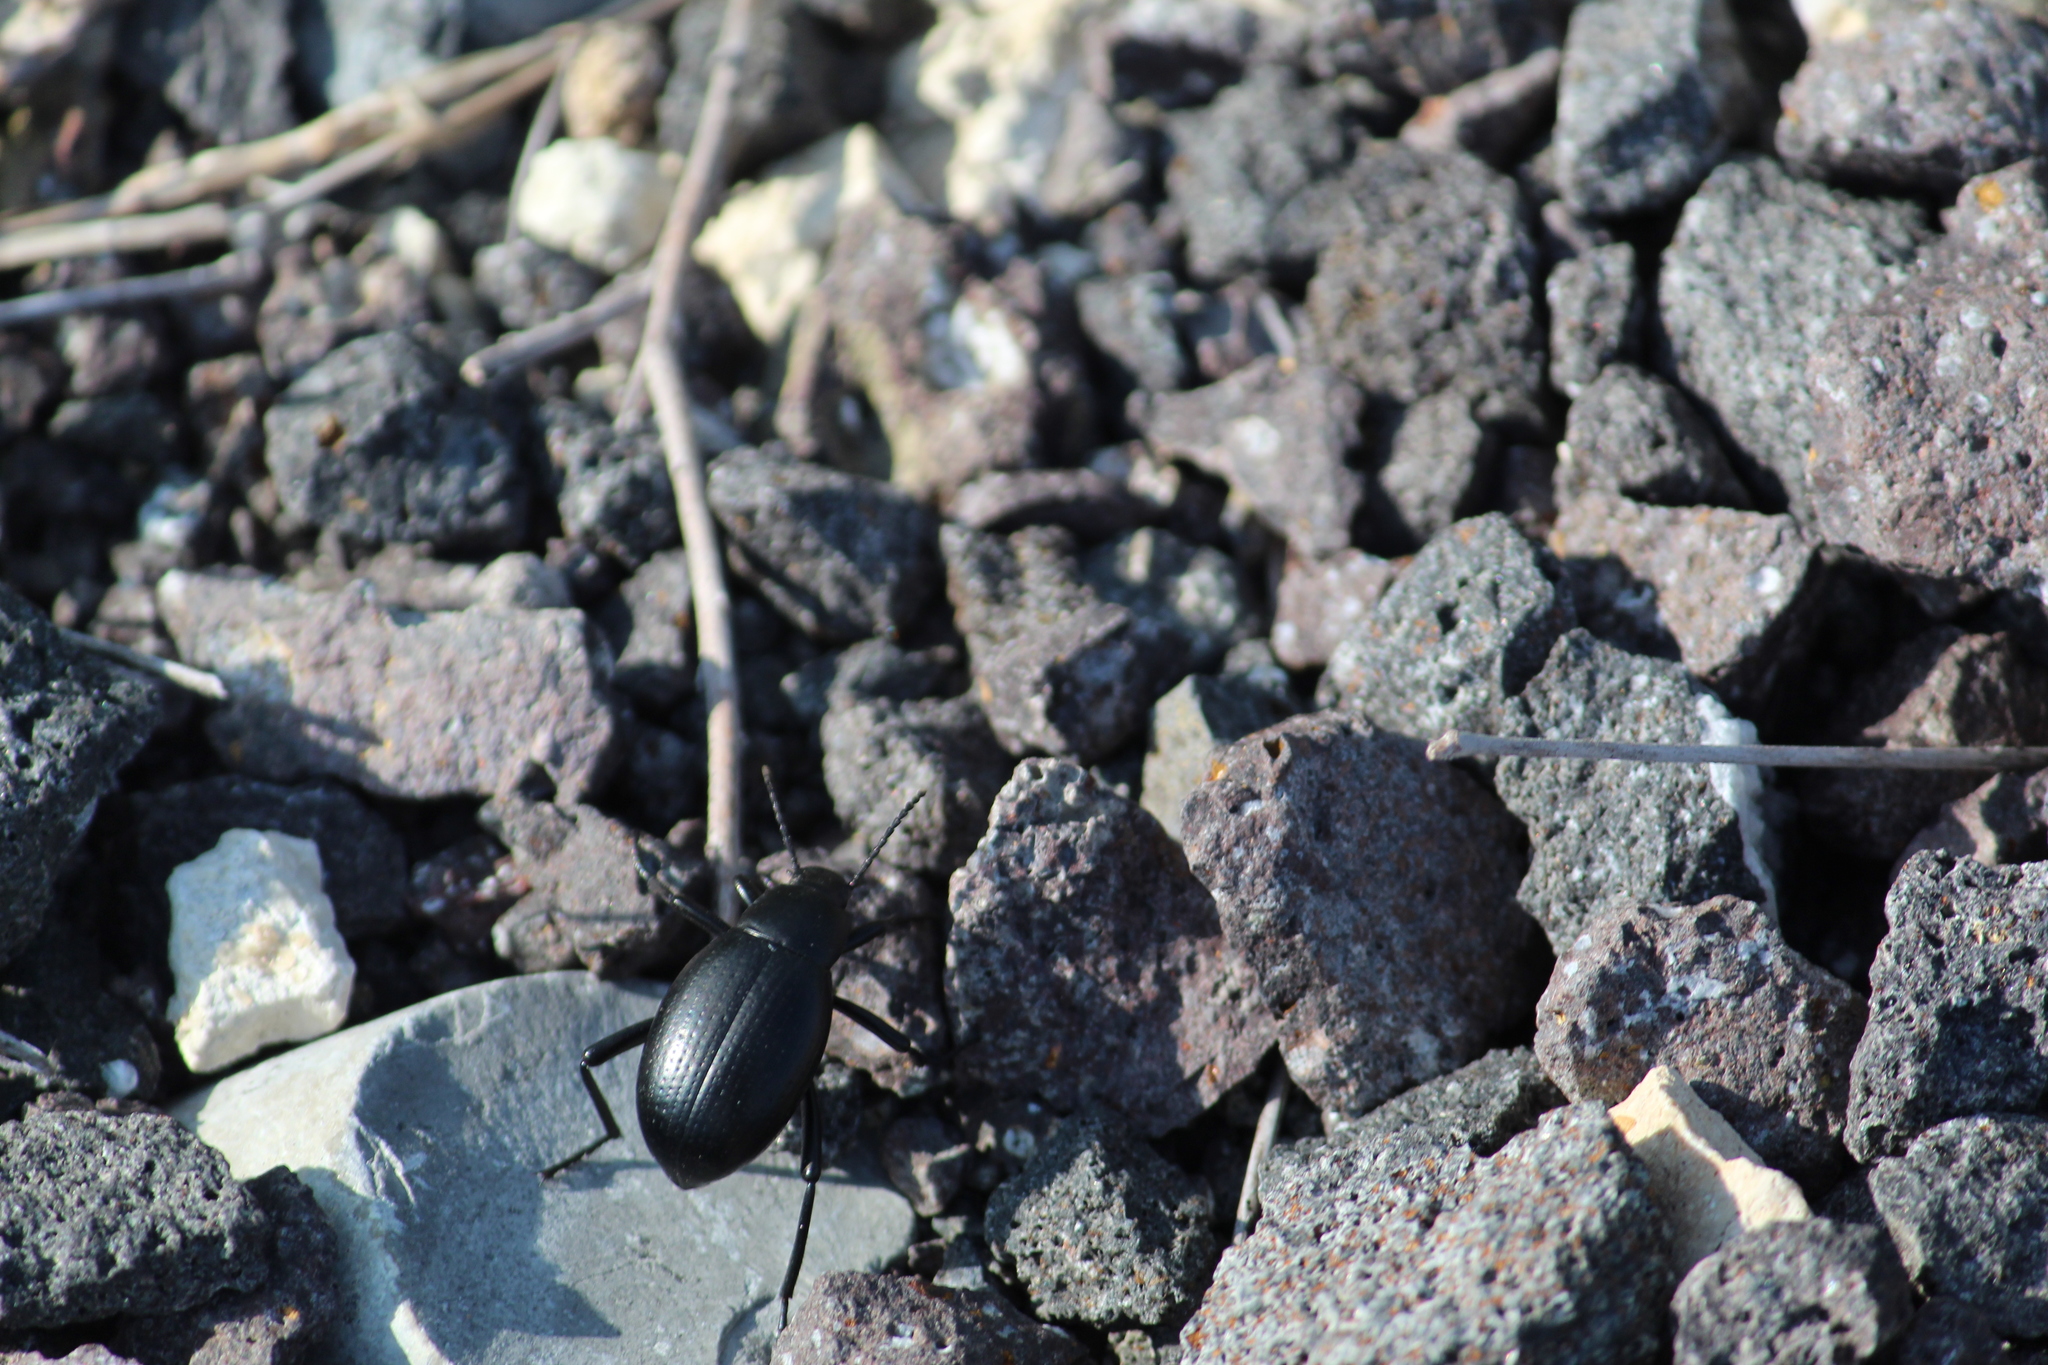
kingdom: Animalia
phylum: Arthropoda
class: Insecta
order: Coleoptera
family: Tenebrionidae
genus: Eleodes
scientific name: Eleodes goryi
